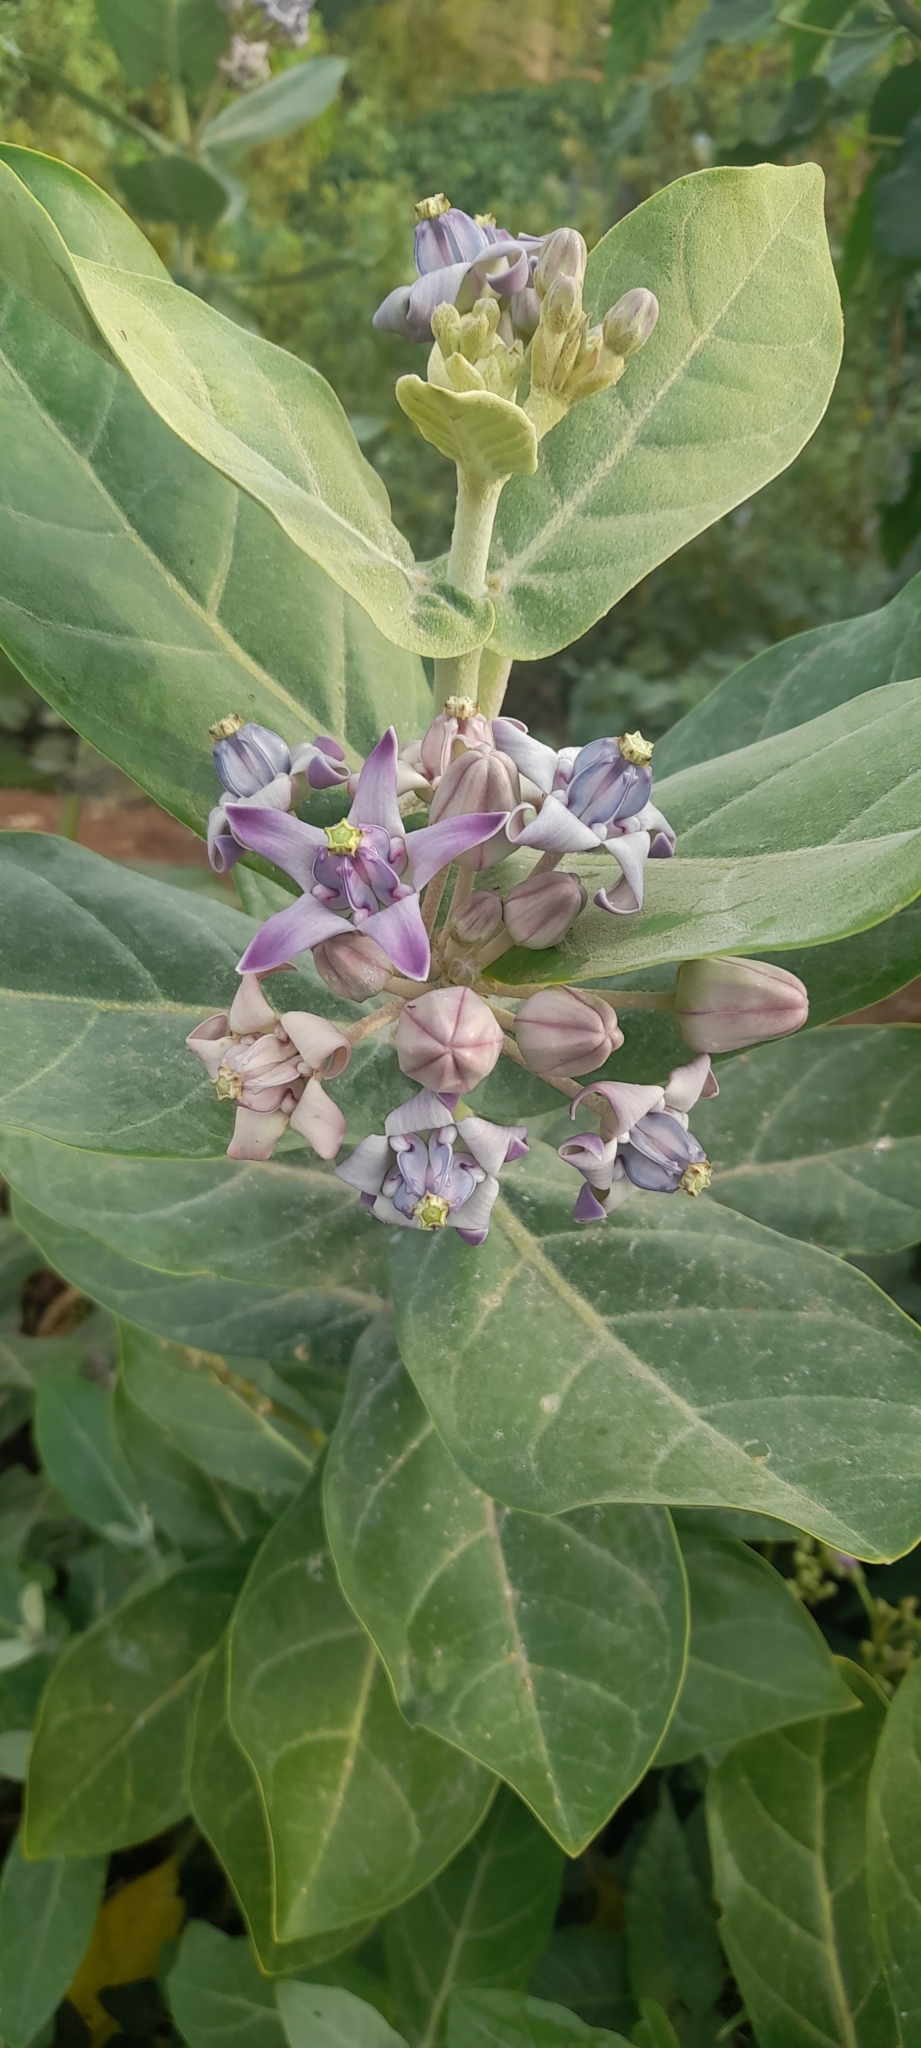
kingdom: Plantae
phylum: Tracheophyta
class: Magnoliopsida
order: Gentianales
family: Apocynaceae
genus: Calotropis
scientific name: Calotropis gigantea
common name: Crown flower
